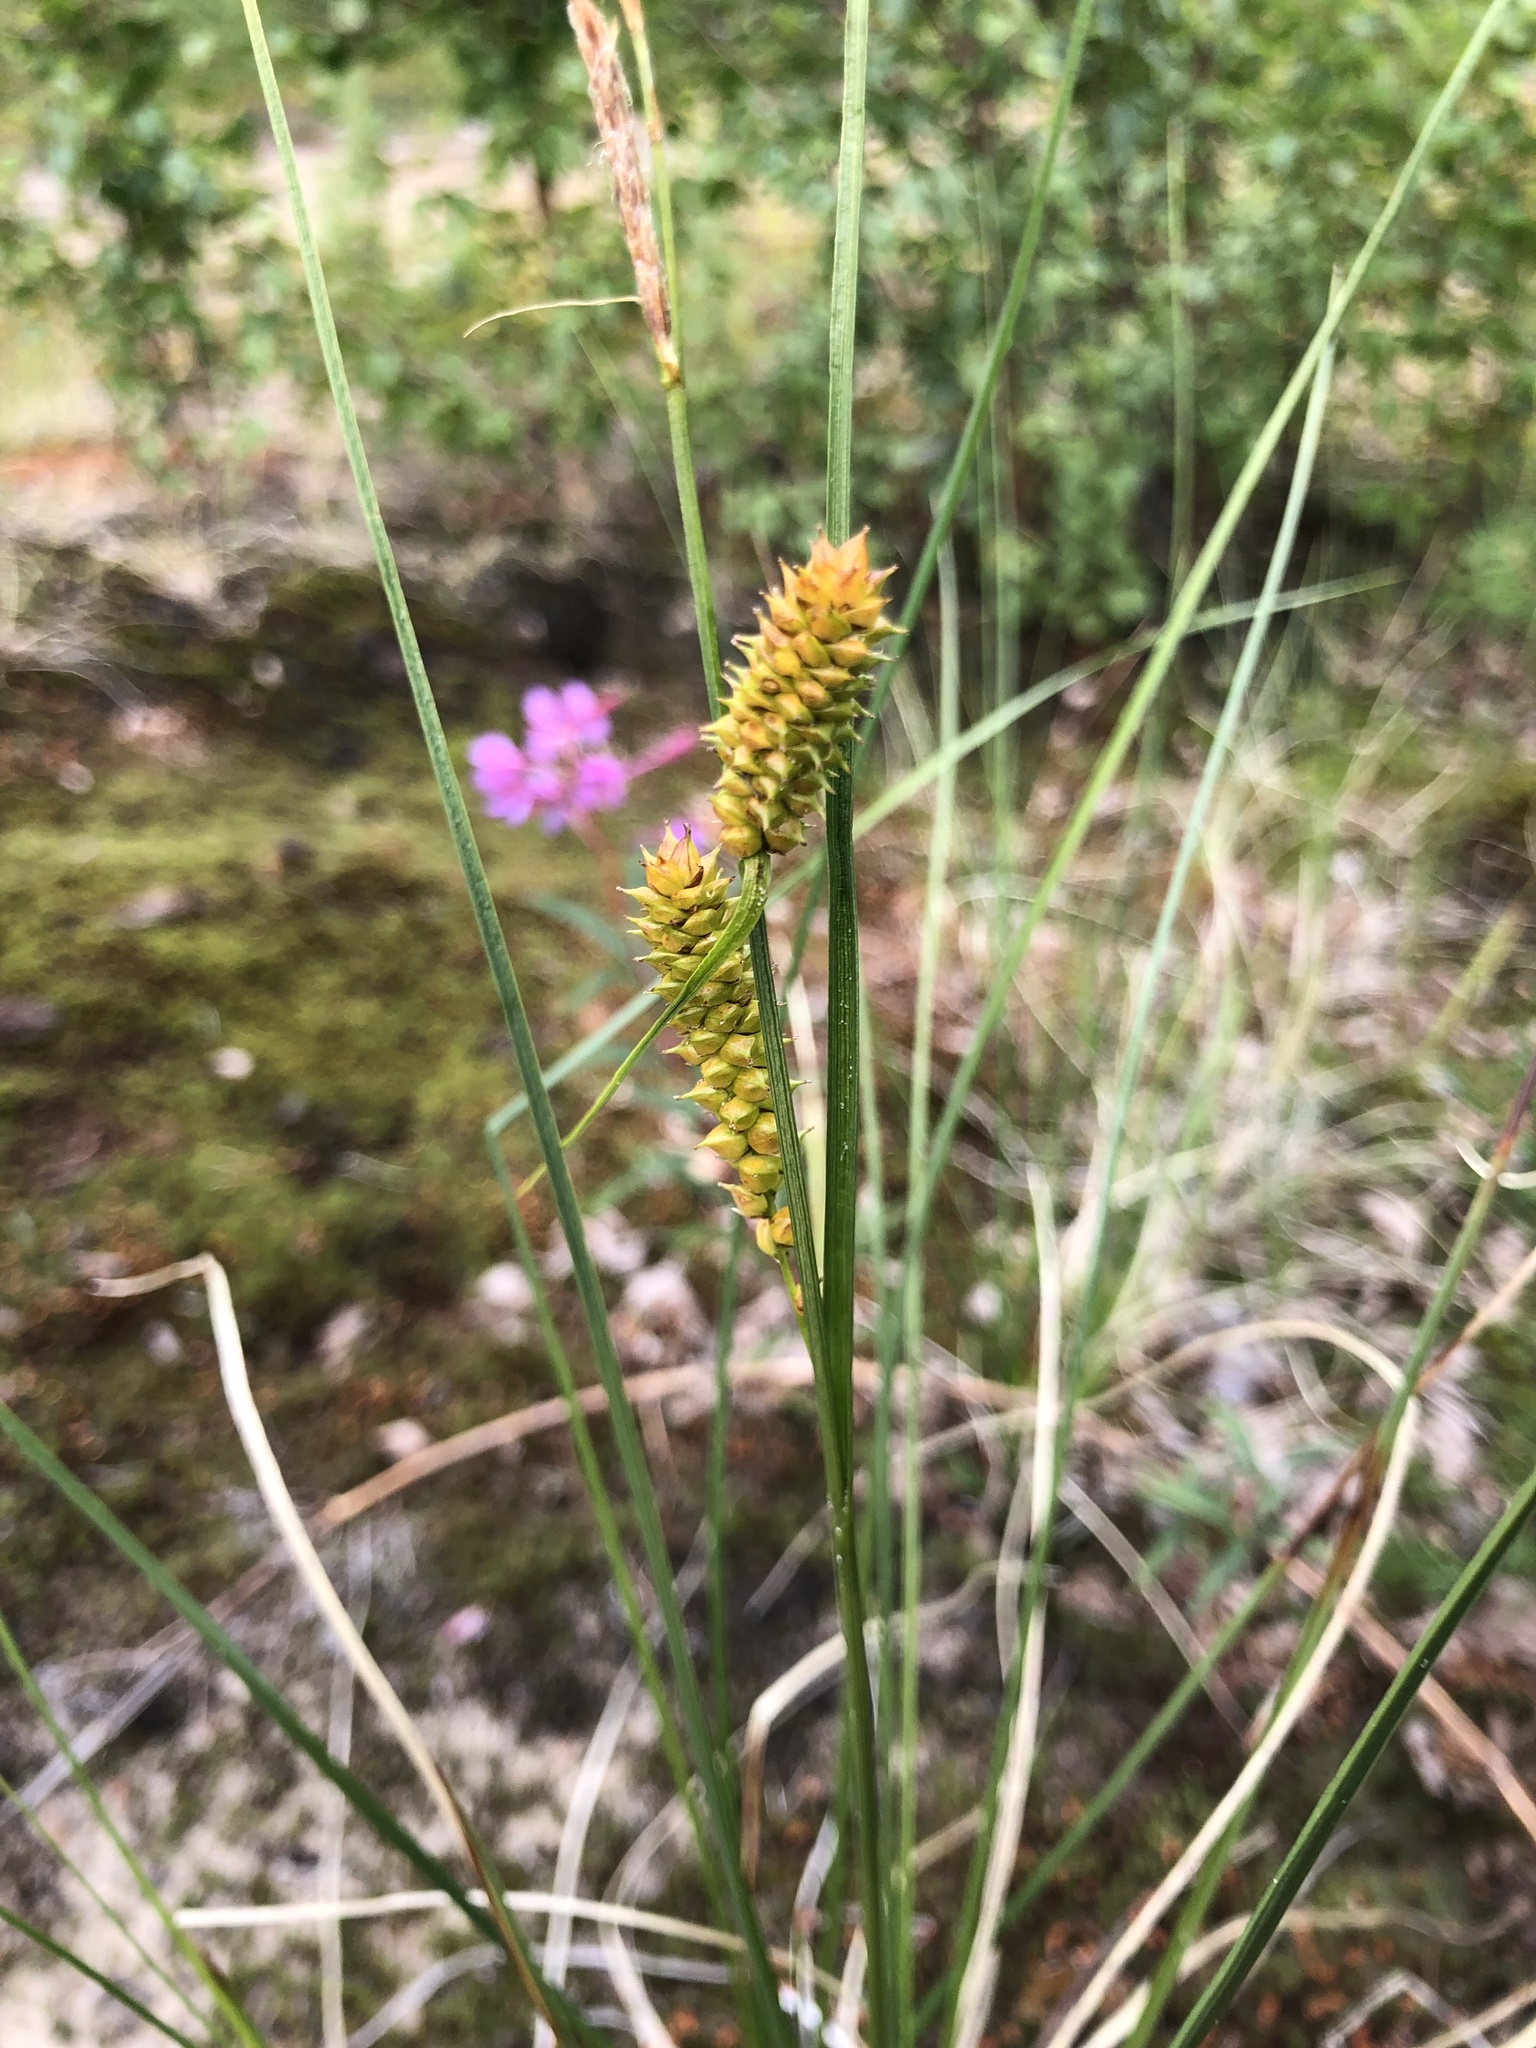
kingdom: Plantae
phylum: Tracheophyta
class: Liliopsida
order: Poales
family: Cyperaceae
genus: Carex
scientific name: Carex rotundata
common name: Round-fruited sedge
